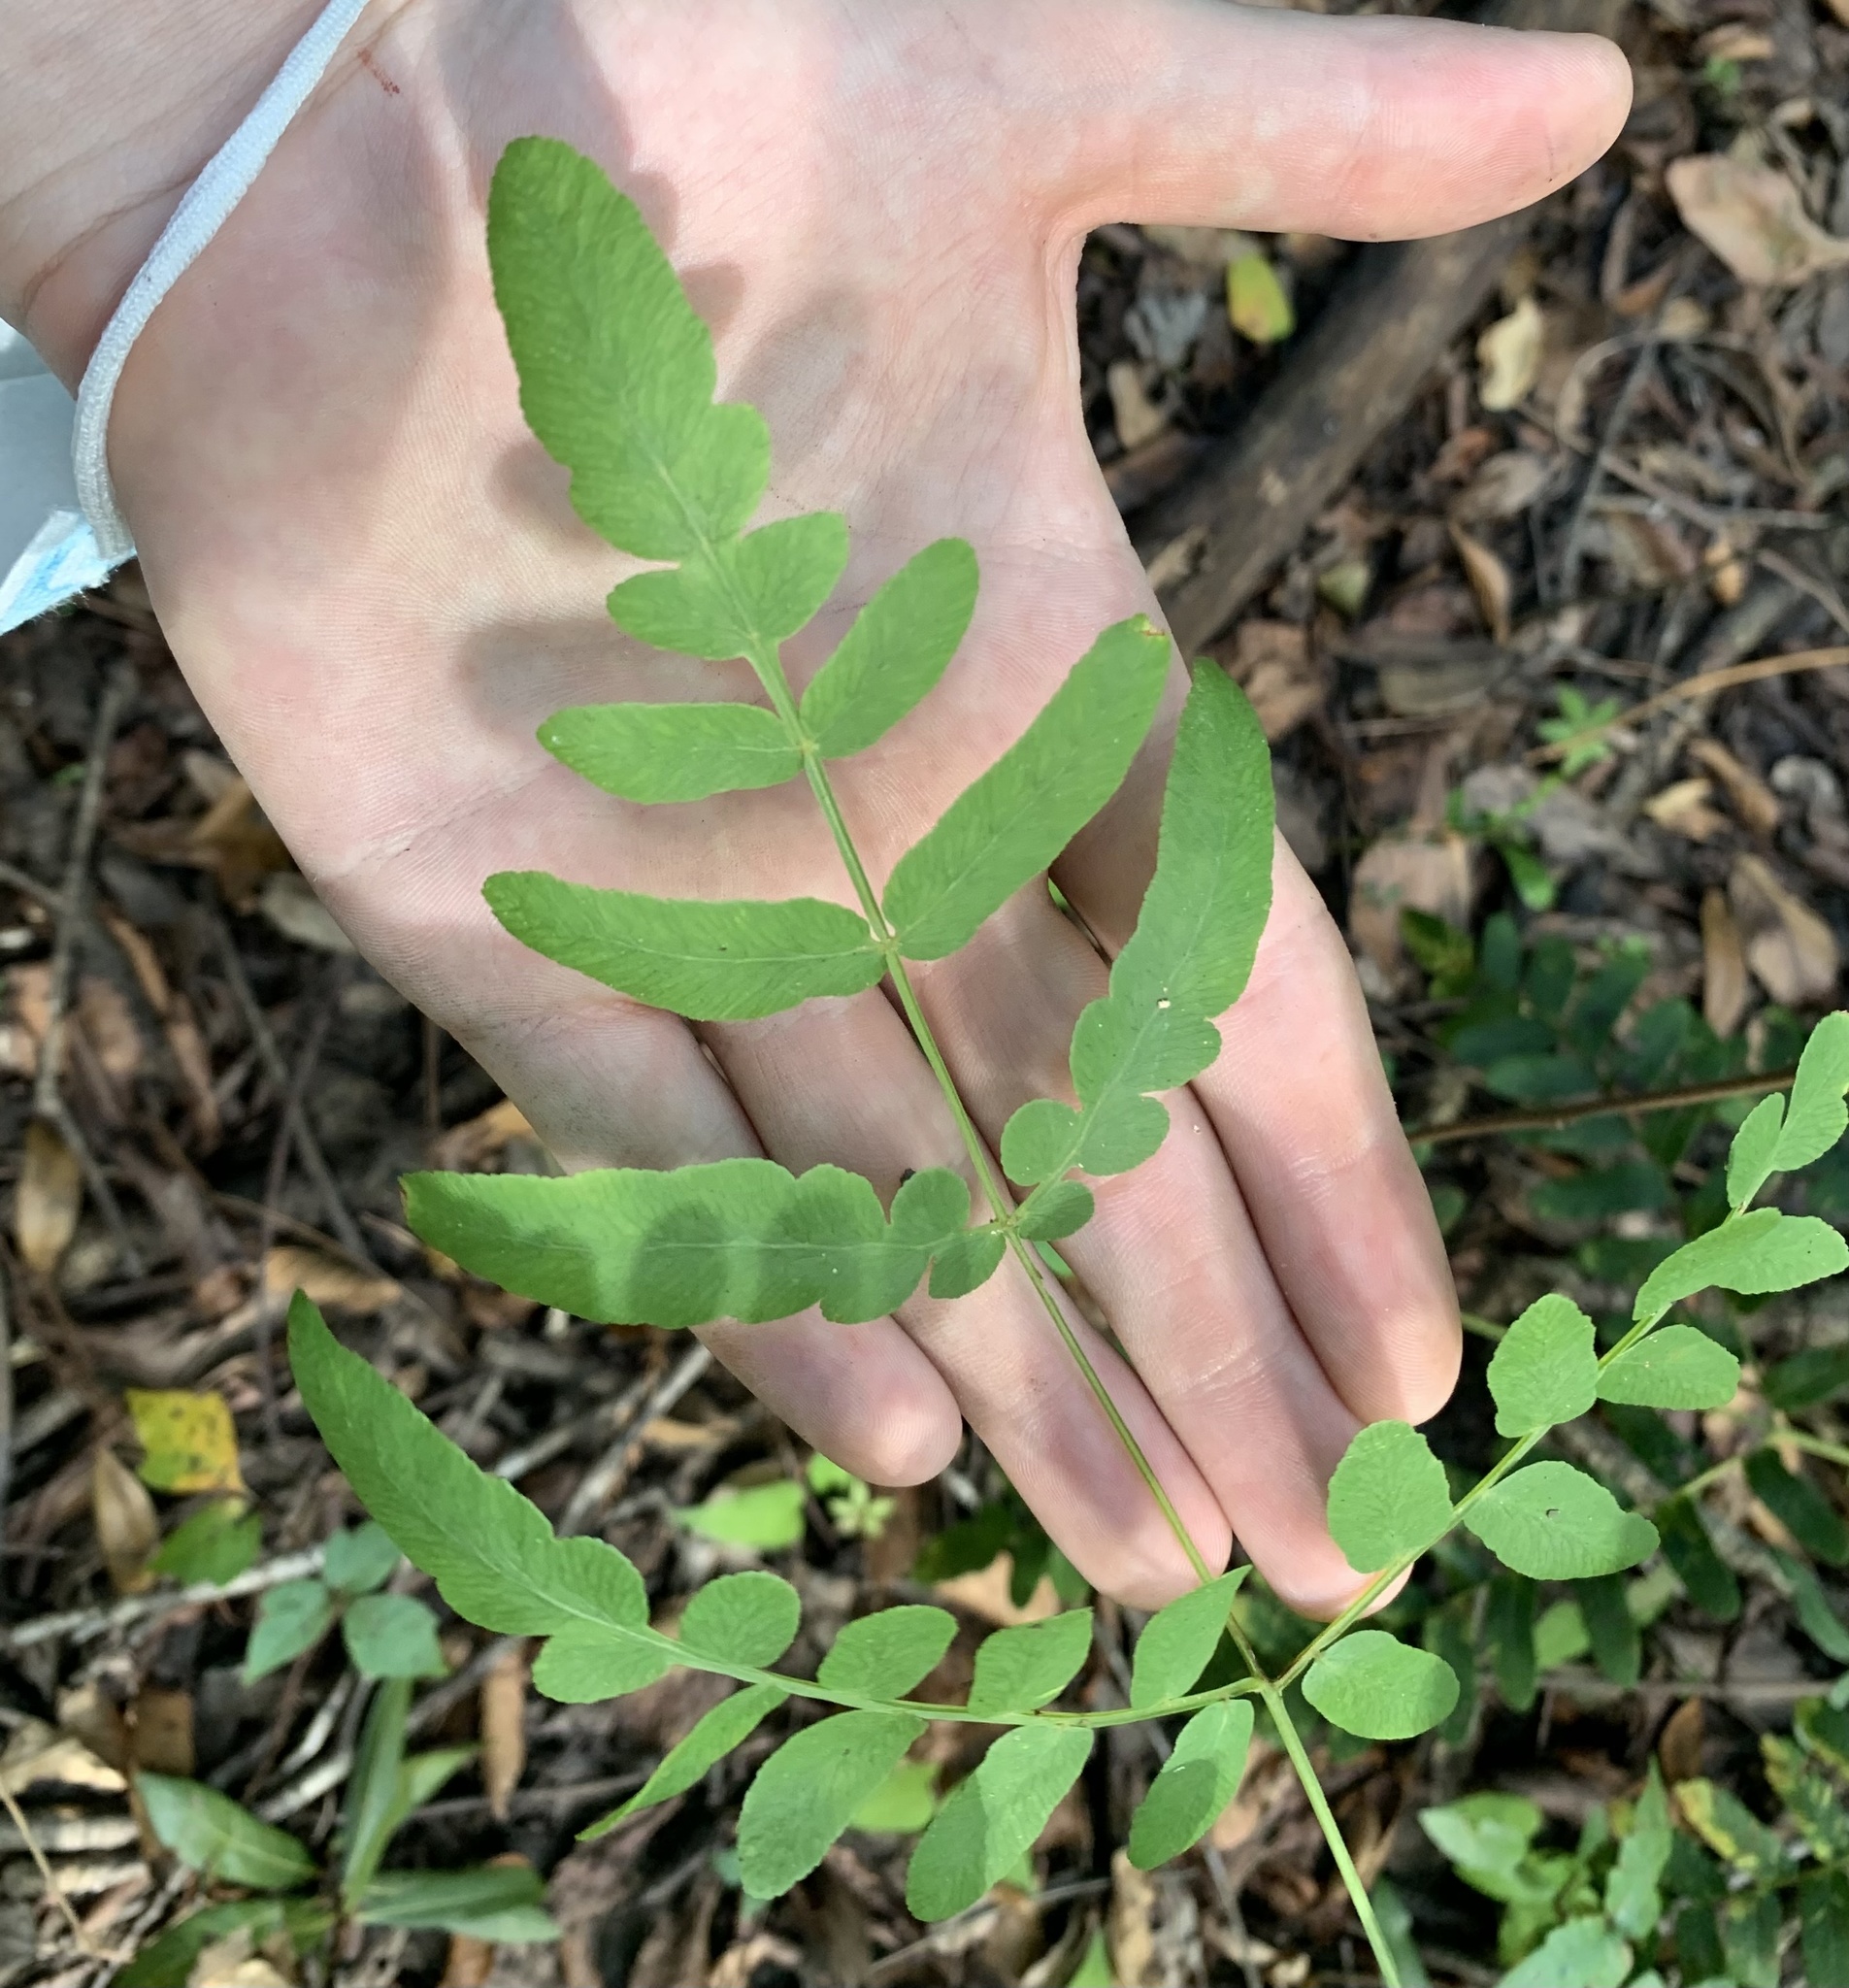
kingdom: Plantae
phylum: Tracheophyta
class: Polypodiopsida
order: Osmundales
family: Osmundaceae
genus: Osmunda
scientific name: Osmunda spectabilis
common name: American royal fern
